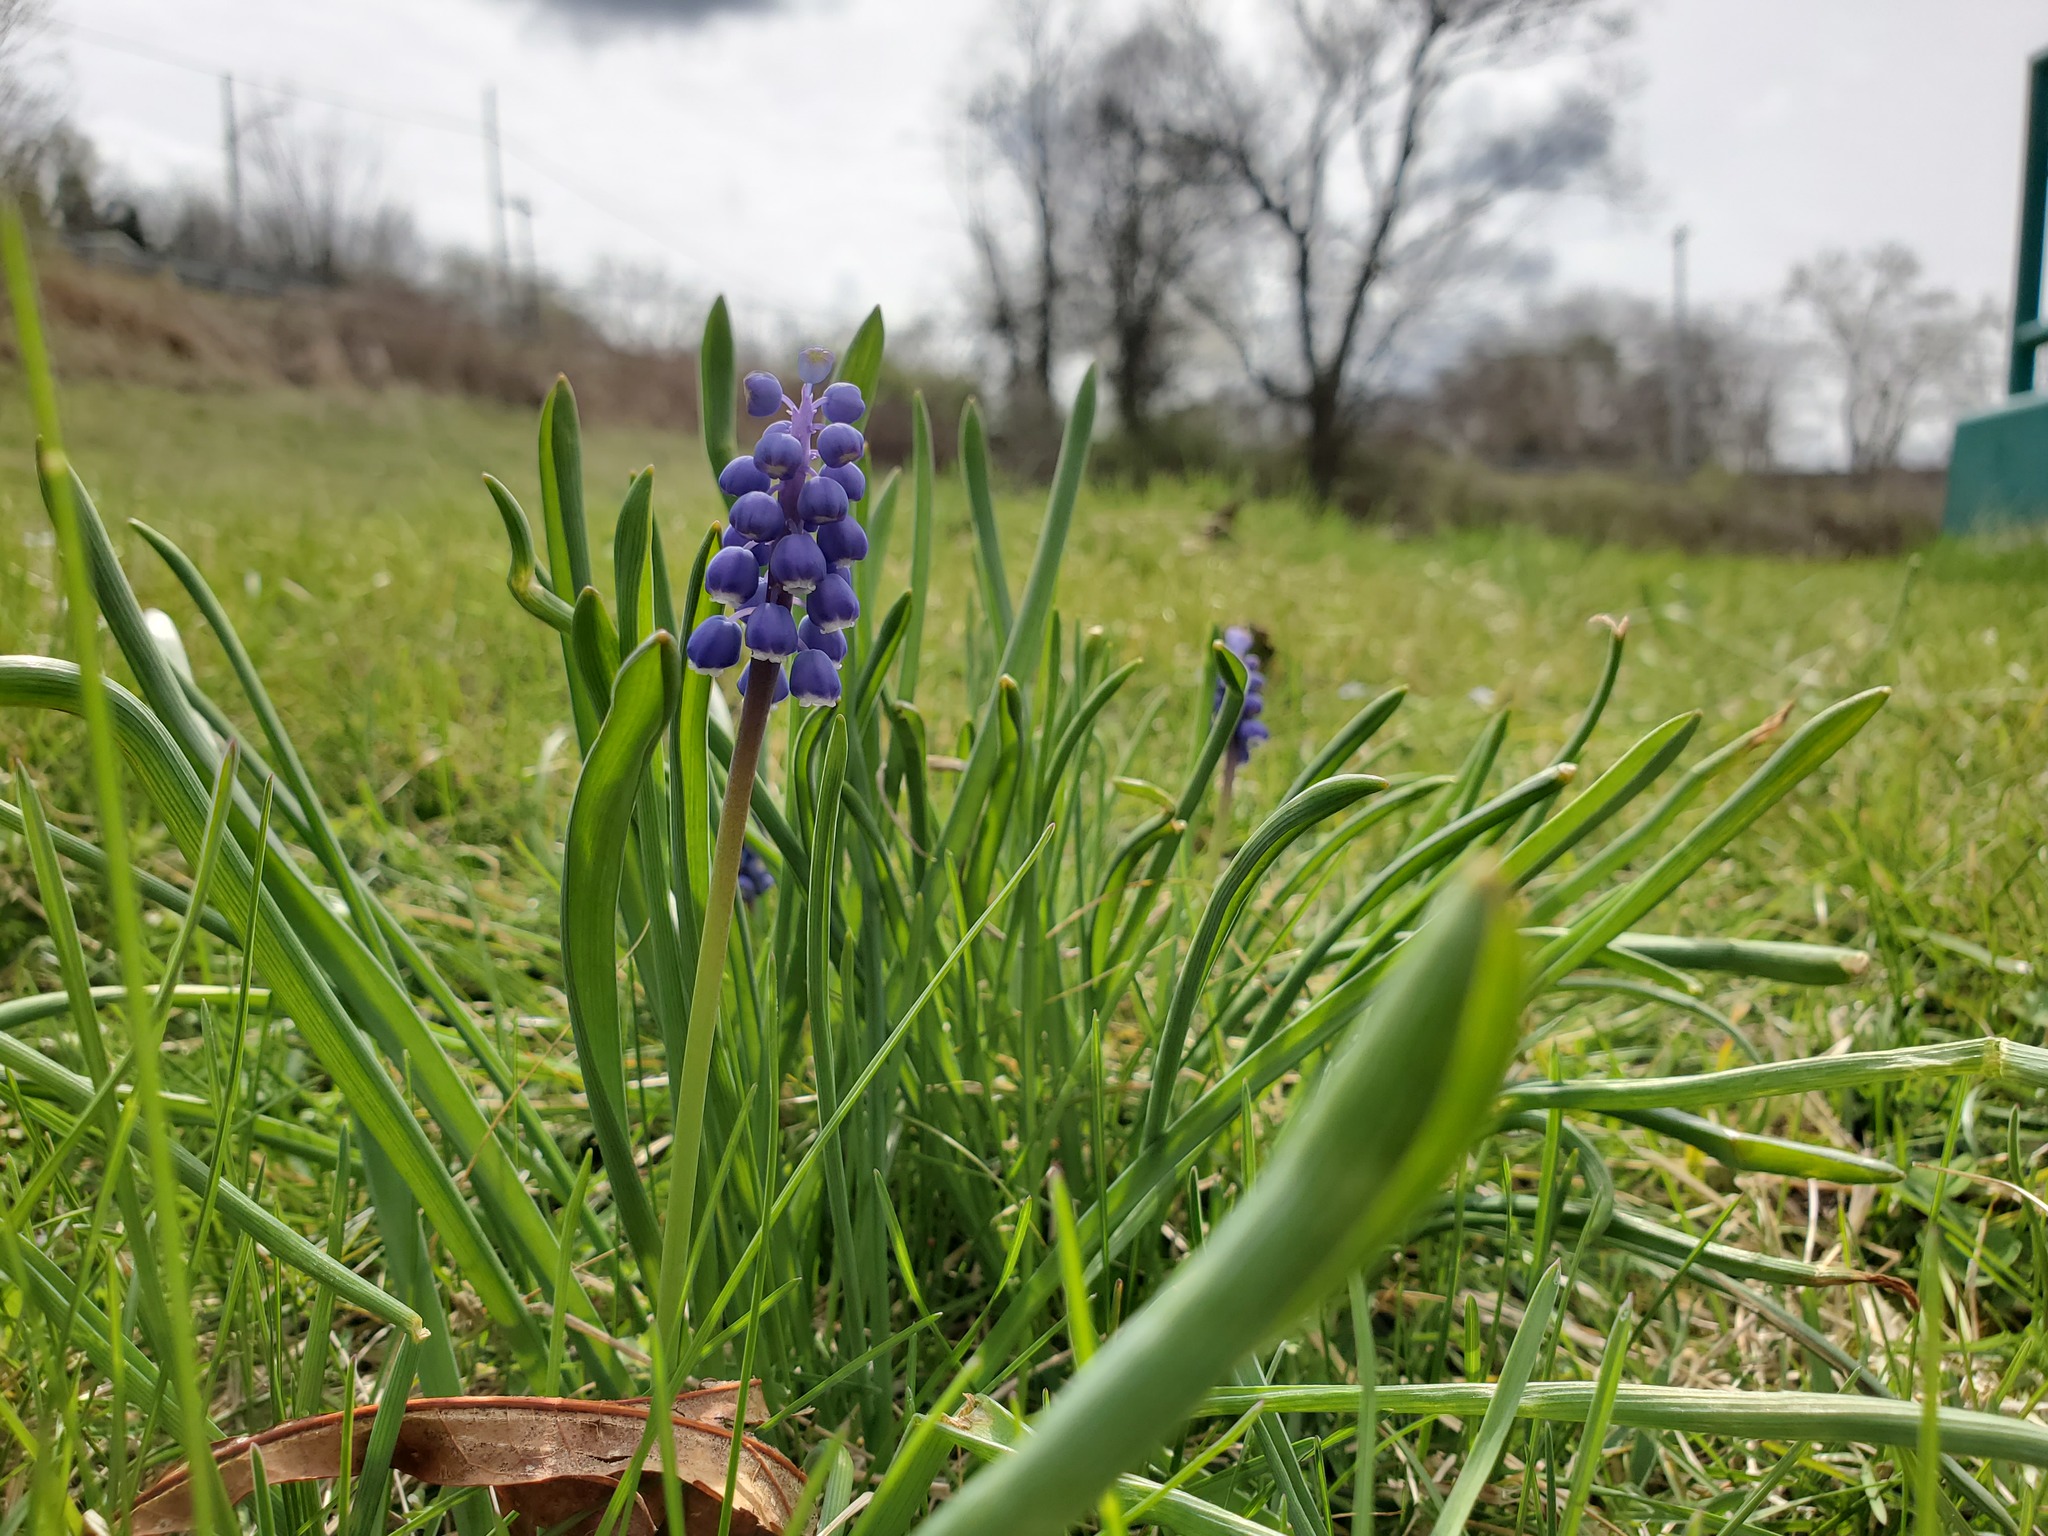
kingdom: Plantae
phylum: Tracheophyta
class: Liliopsida
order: Asparagales
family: Asparagaceae
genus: Muscari
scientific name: Muscari botryoides
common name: Compact grape-hyacinth
